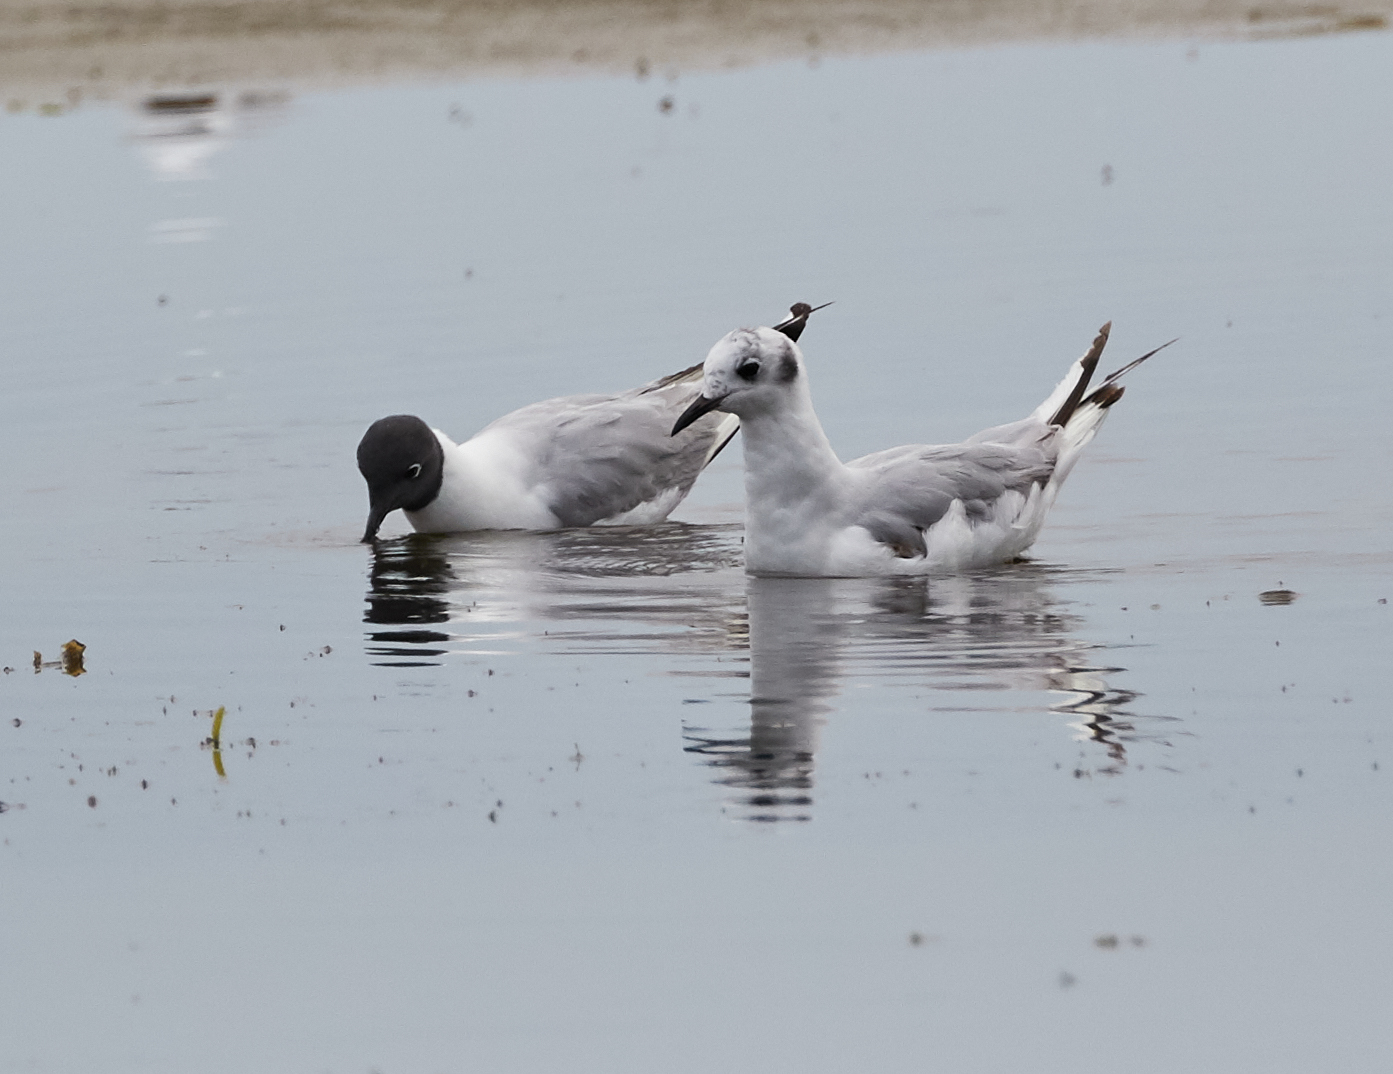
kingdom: Animalia
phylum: Chordata
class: Aves
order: Charadriiformes
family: Laridae
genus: Chroicocephalus
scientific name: Chroicocephalus philadelphia
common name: Bonaparte's gull
